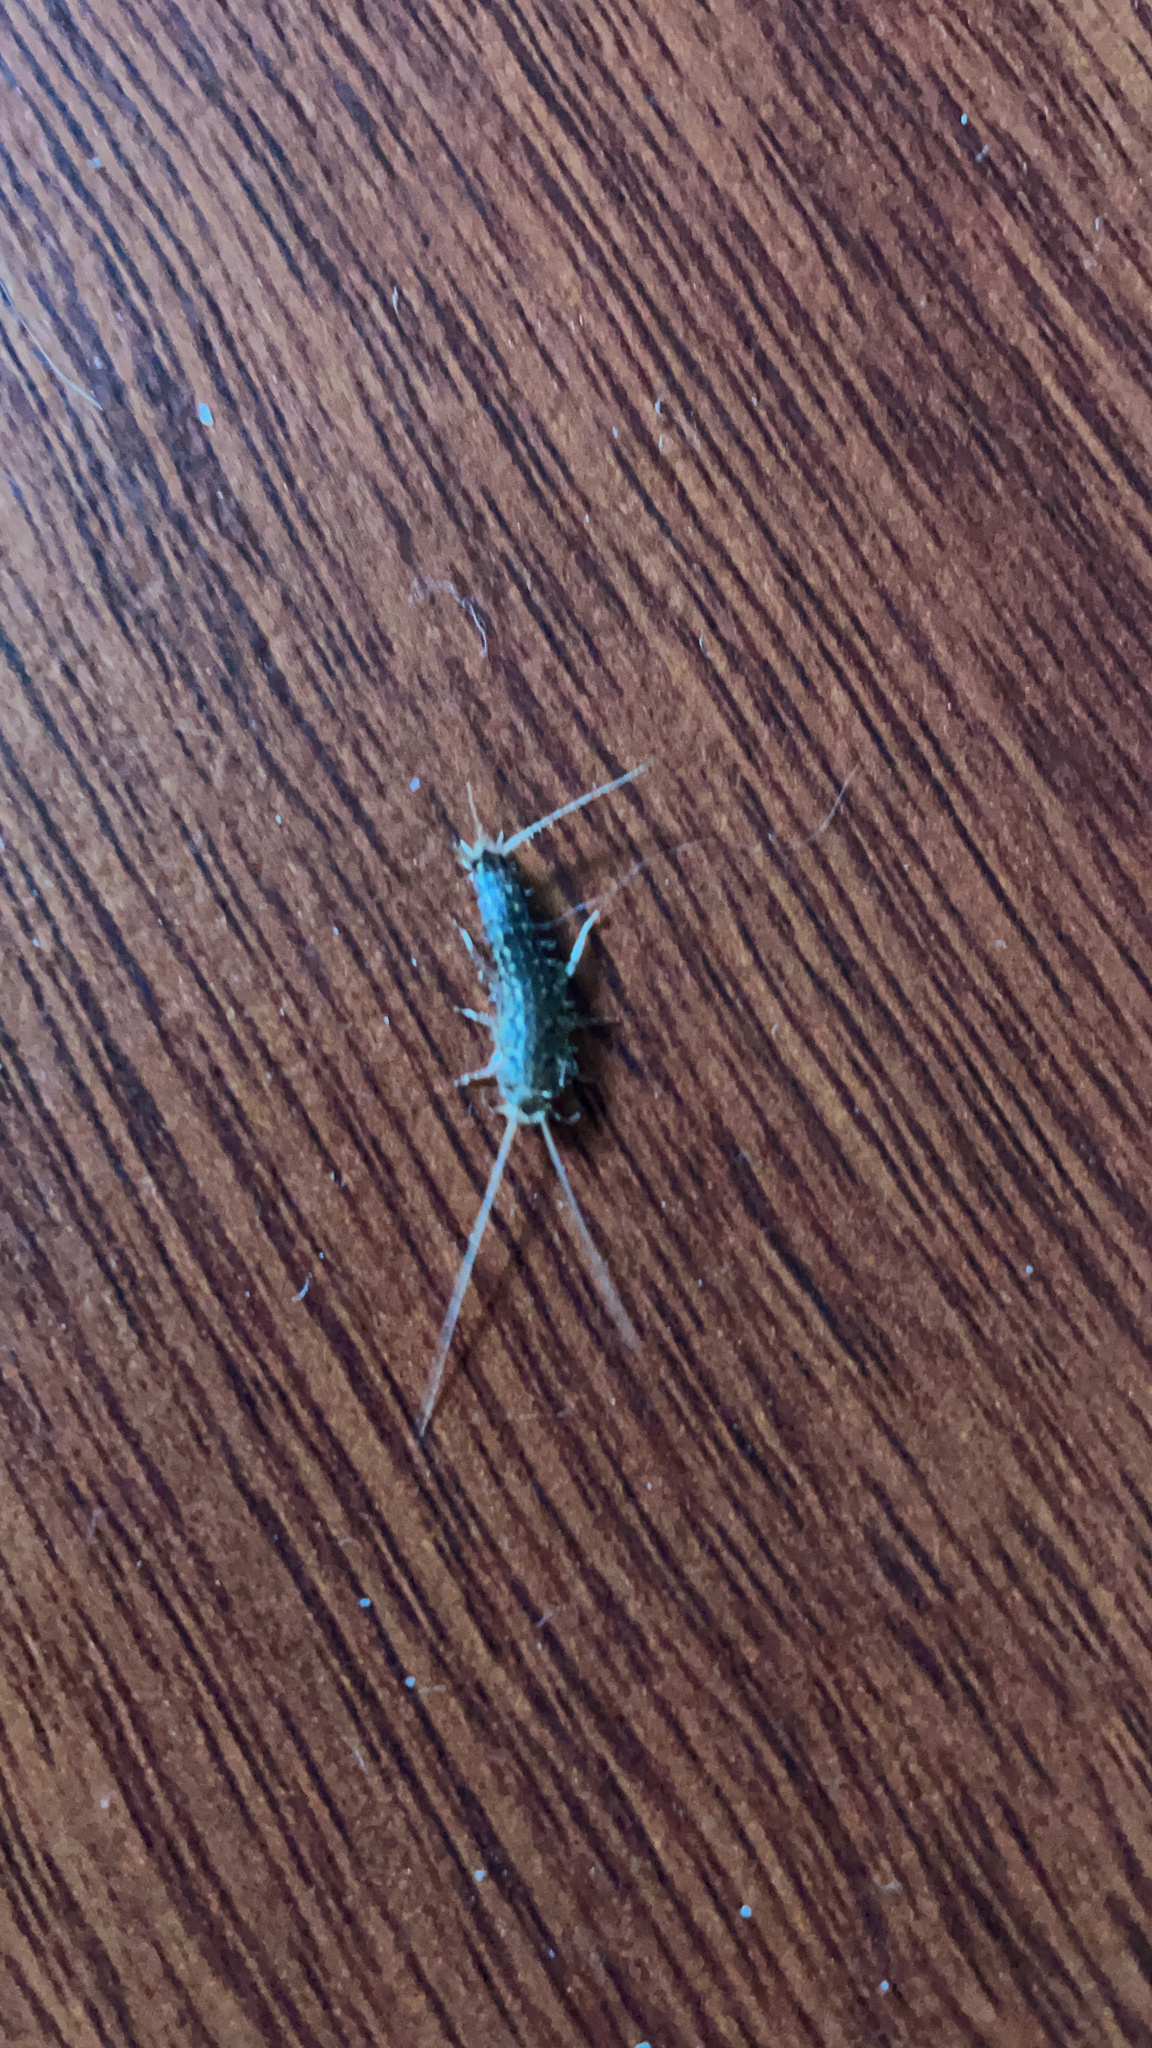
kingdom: Animalia
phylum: Arthropoda
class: Insecta
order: Zygentoma
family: Lepismatidae
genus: Ctenolepisma
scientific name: Ctenolepisma lineata
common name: Four-lined silverfish
